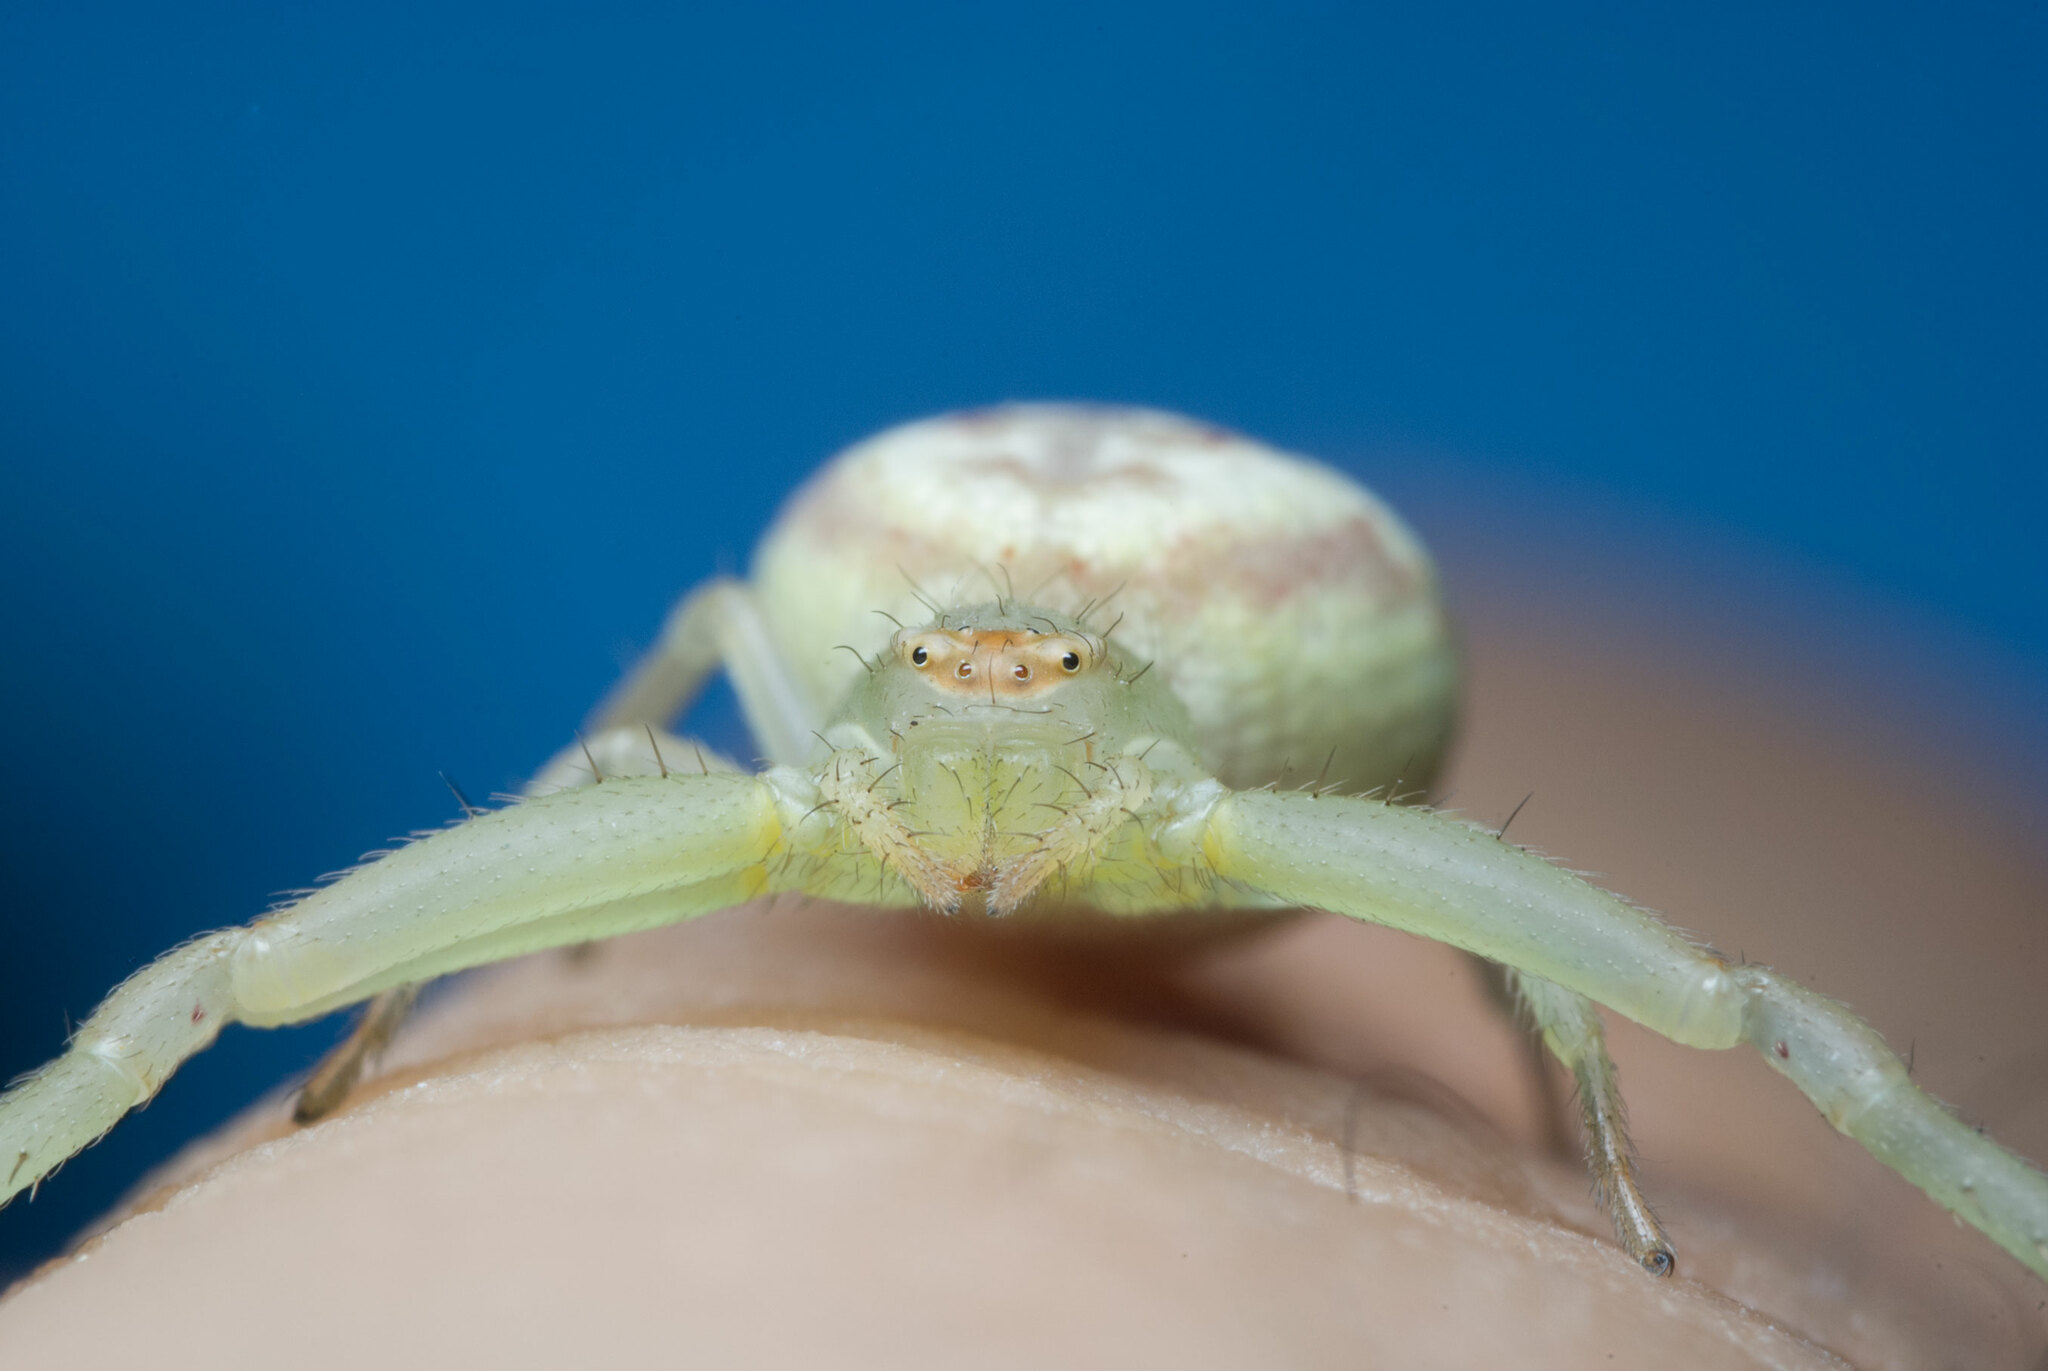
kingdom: Animalia
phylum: Arthropoda
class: Arachnida
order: Araneae
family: Thomisidae
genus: Misumenops
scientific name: Misumenops
